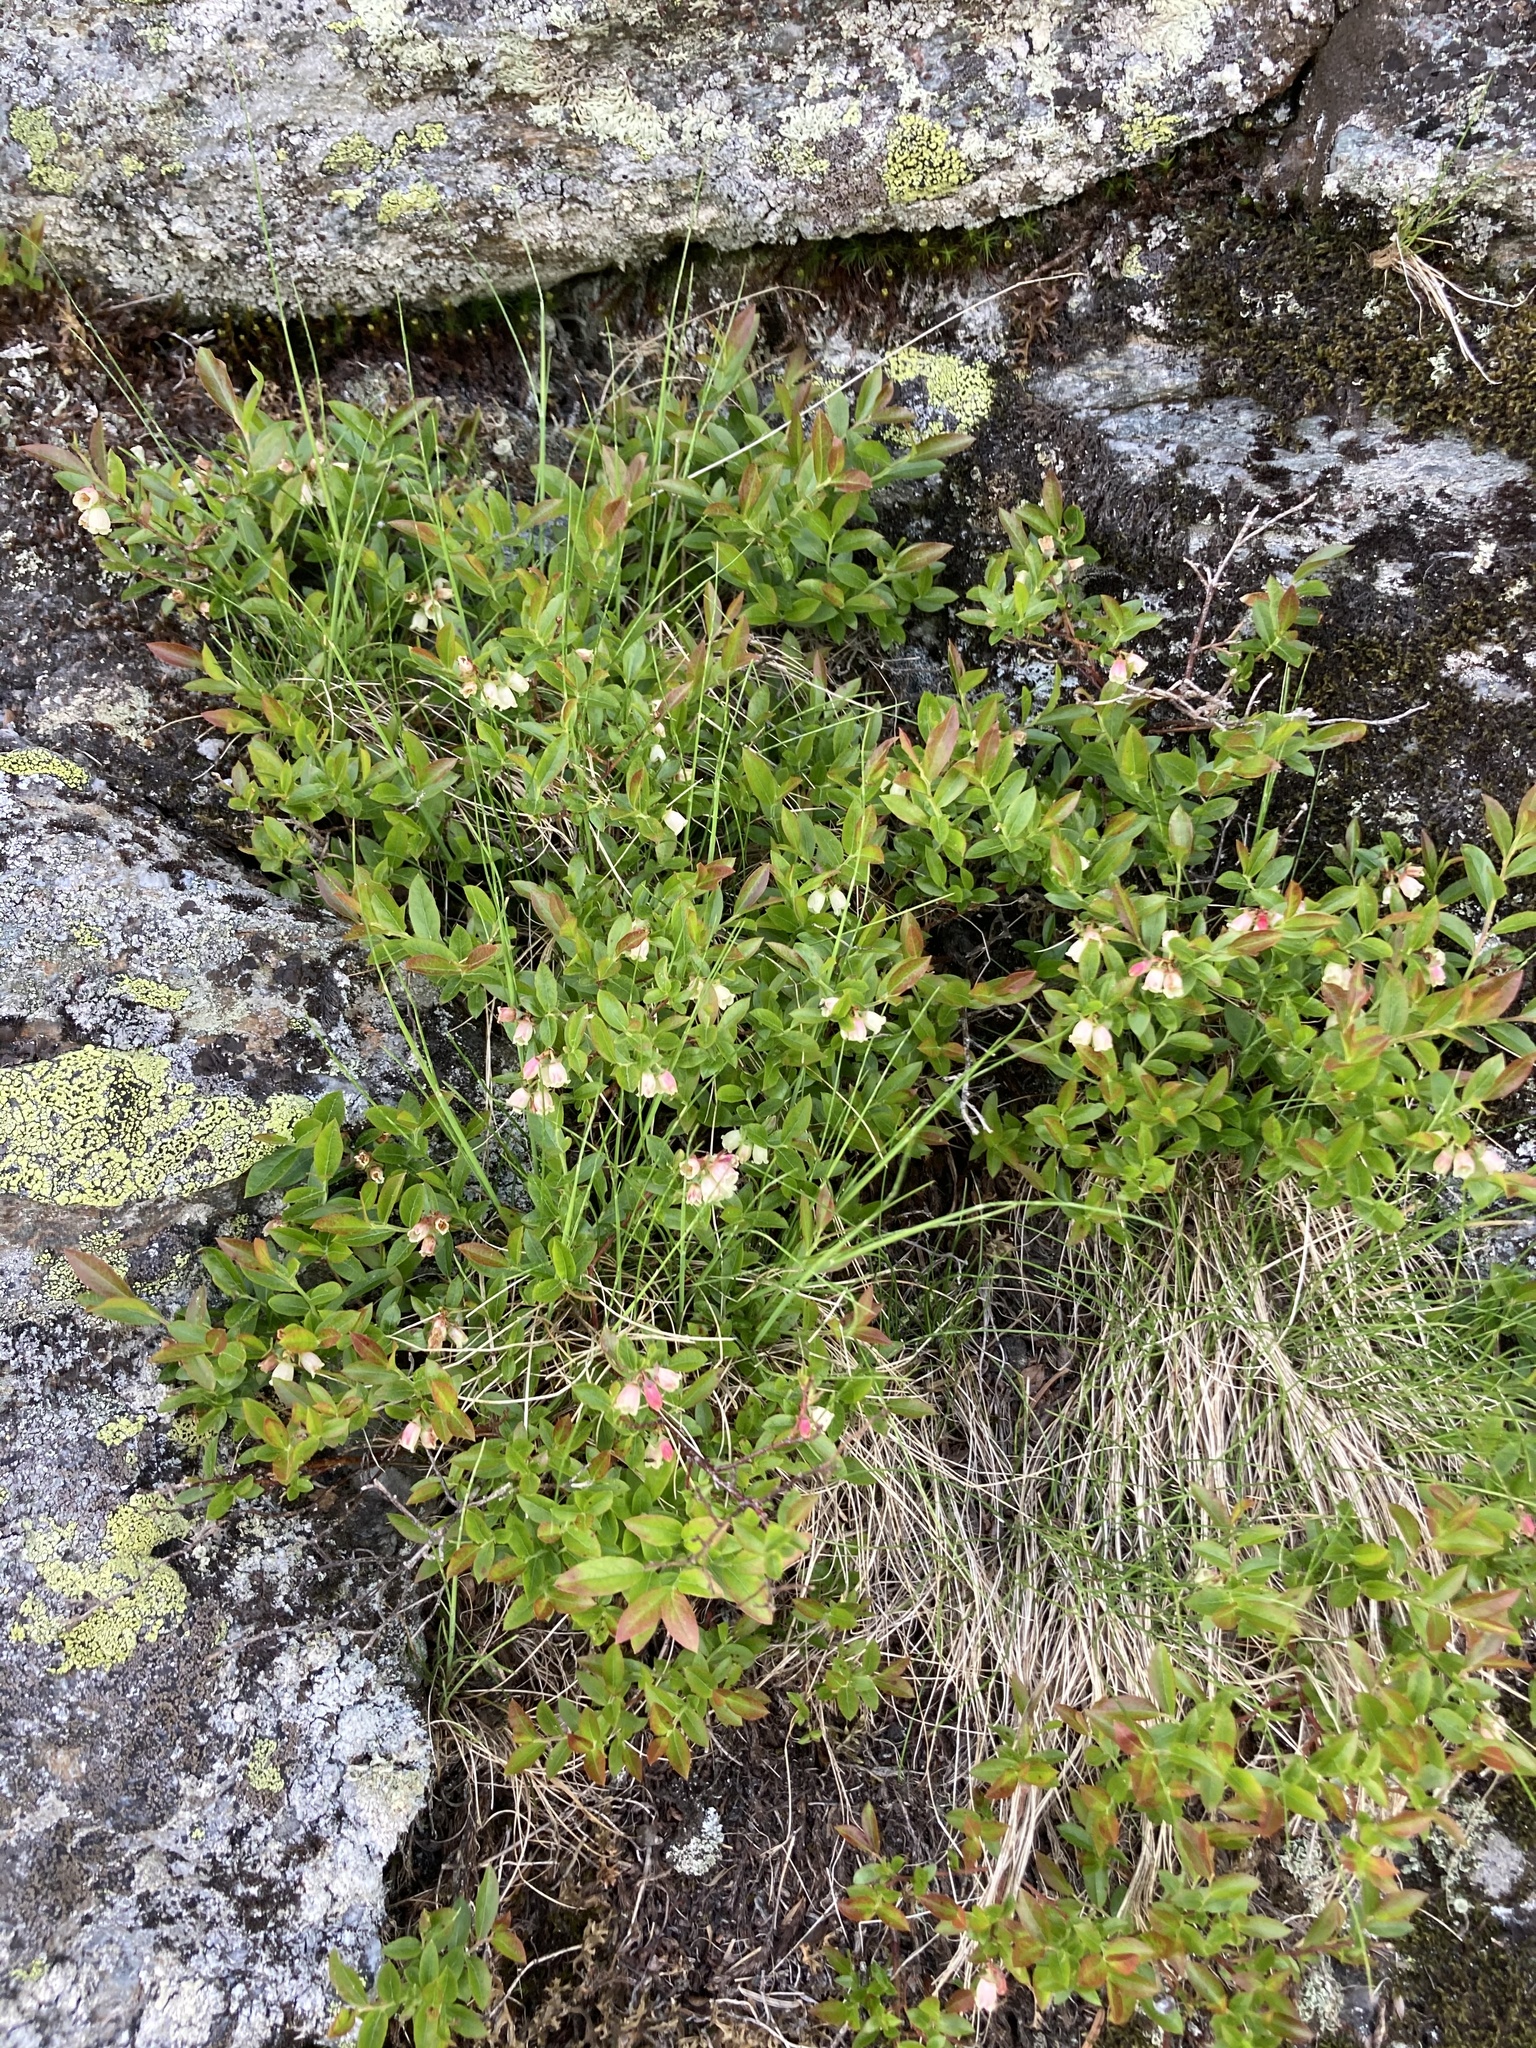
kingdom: Plantae
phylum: Tracheophyta
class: Magnoliopsida
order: Ericales
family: Ericaceae
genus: Vaccinium
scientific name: Vaccinium angustifolium
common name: Early lowbush blueberry
